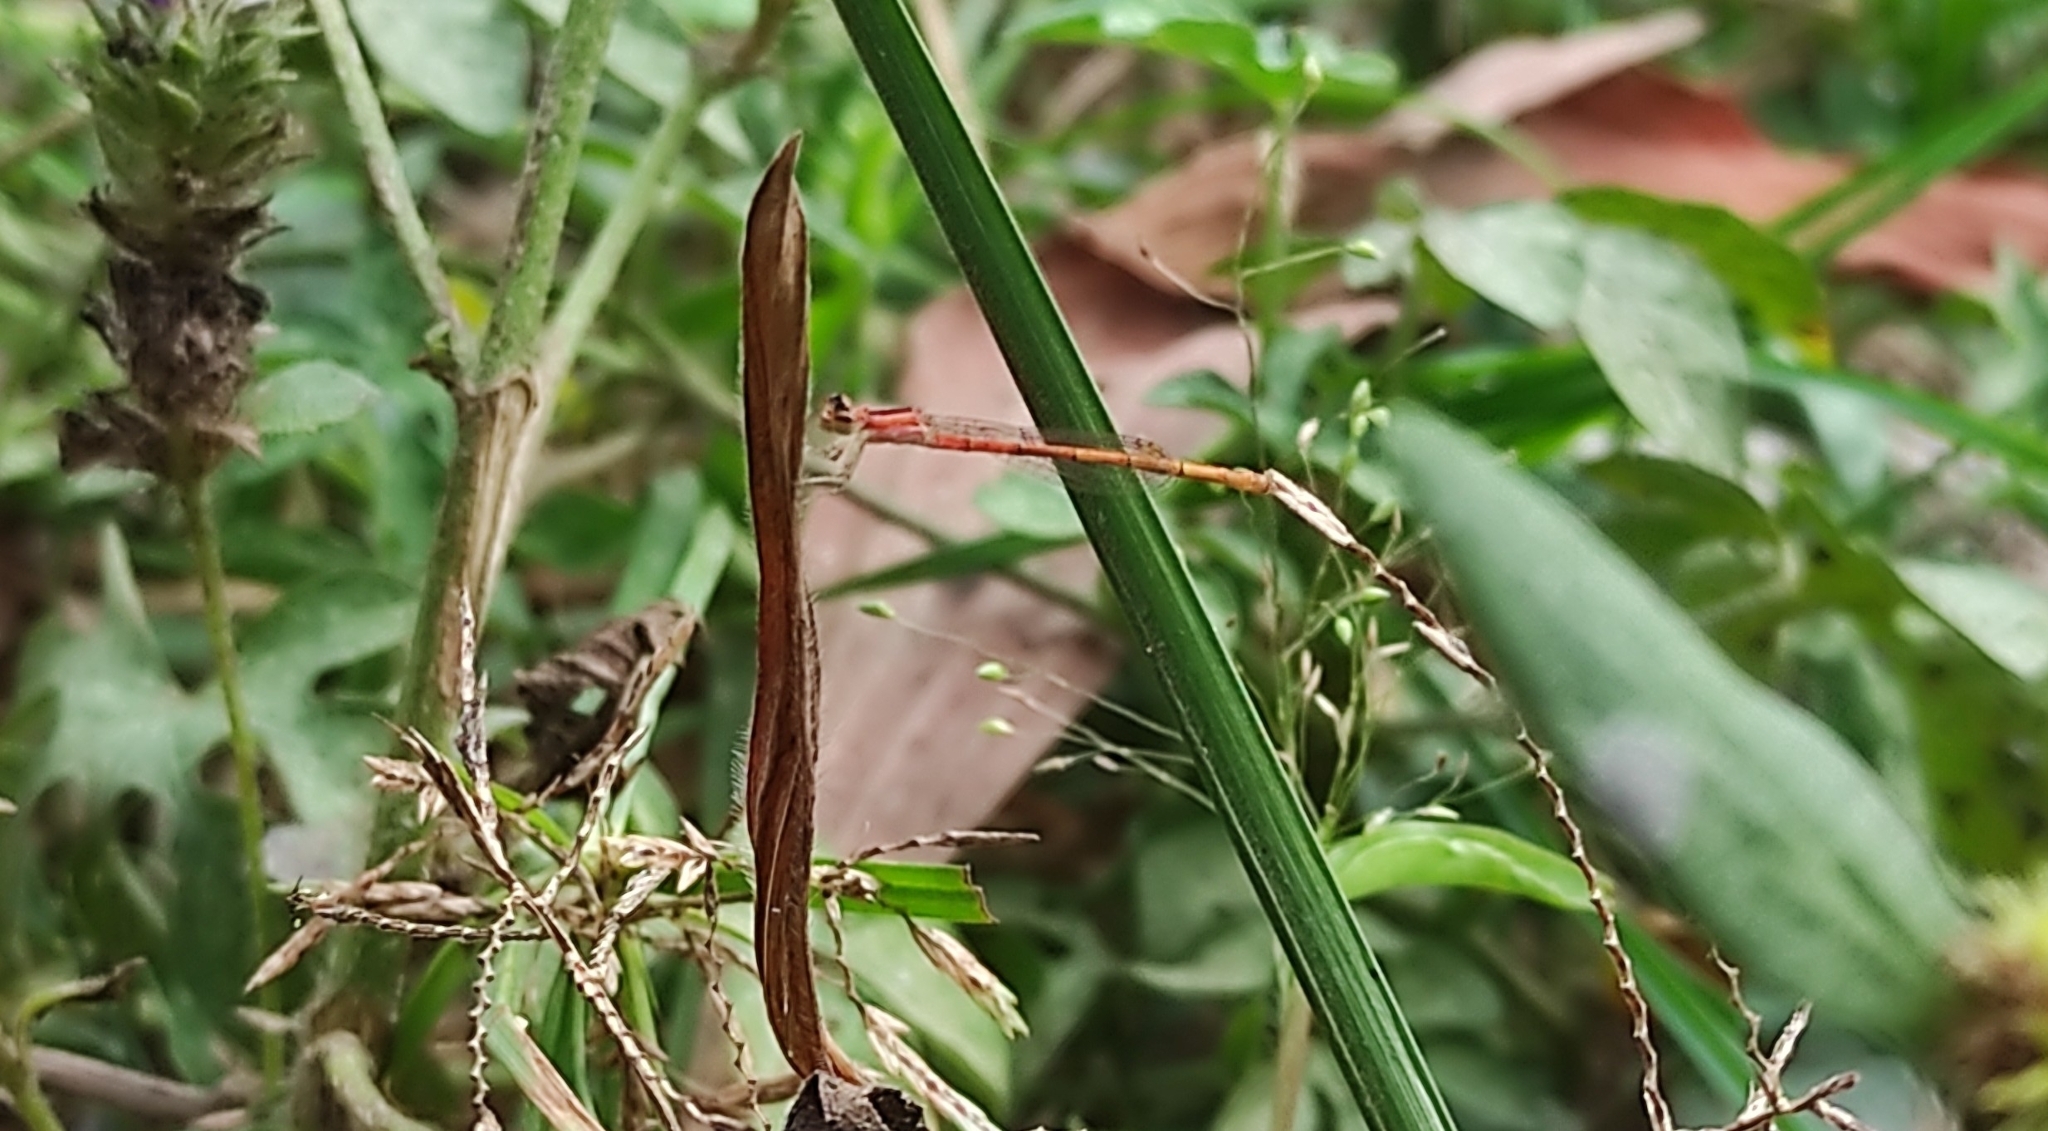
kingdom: Animalia
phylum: Arthropoda
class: Insecta
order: Odonata
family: Coenagrionidae
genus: Agriocnemis
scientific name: Agriocnemis pygmaea
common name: Pygmy wisp
